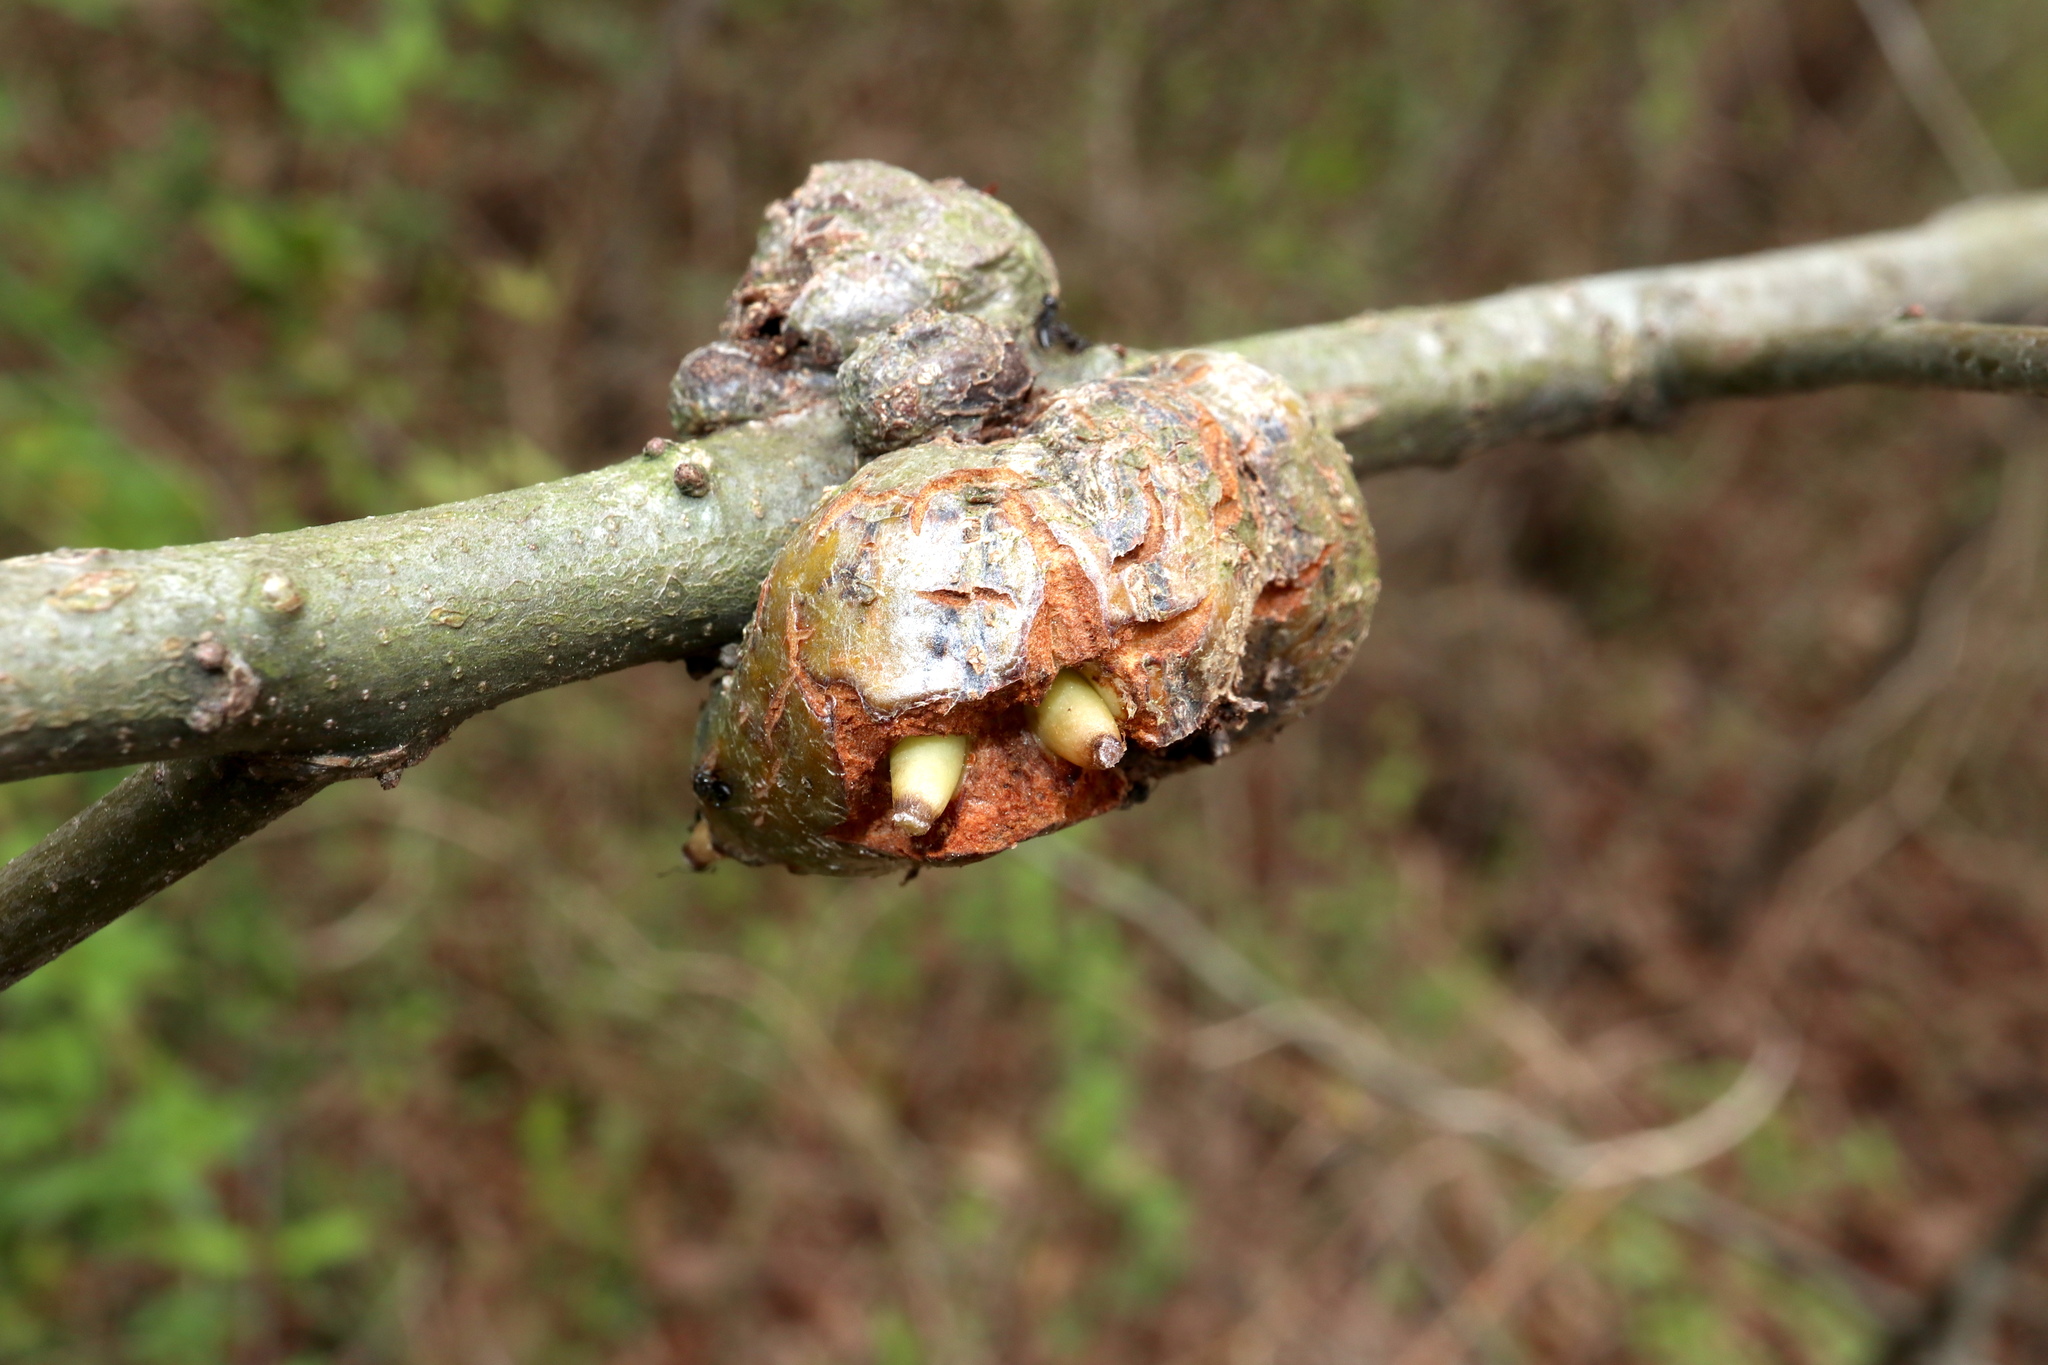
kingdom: Animalia
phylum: Arthropoda
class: Insecta
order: Hymenoptera
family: Cynipidae
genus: Callirhytis
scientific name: Callirhytis
